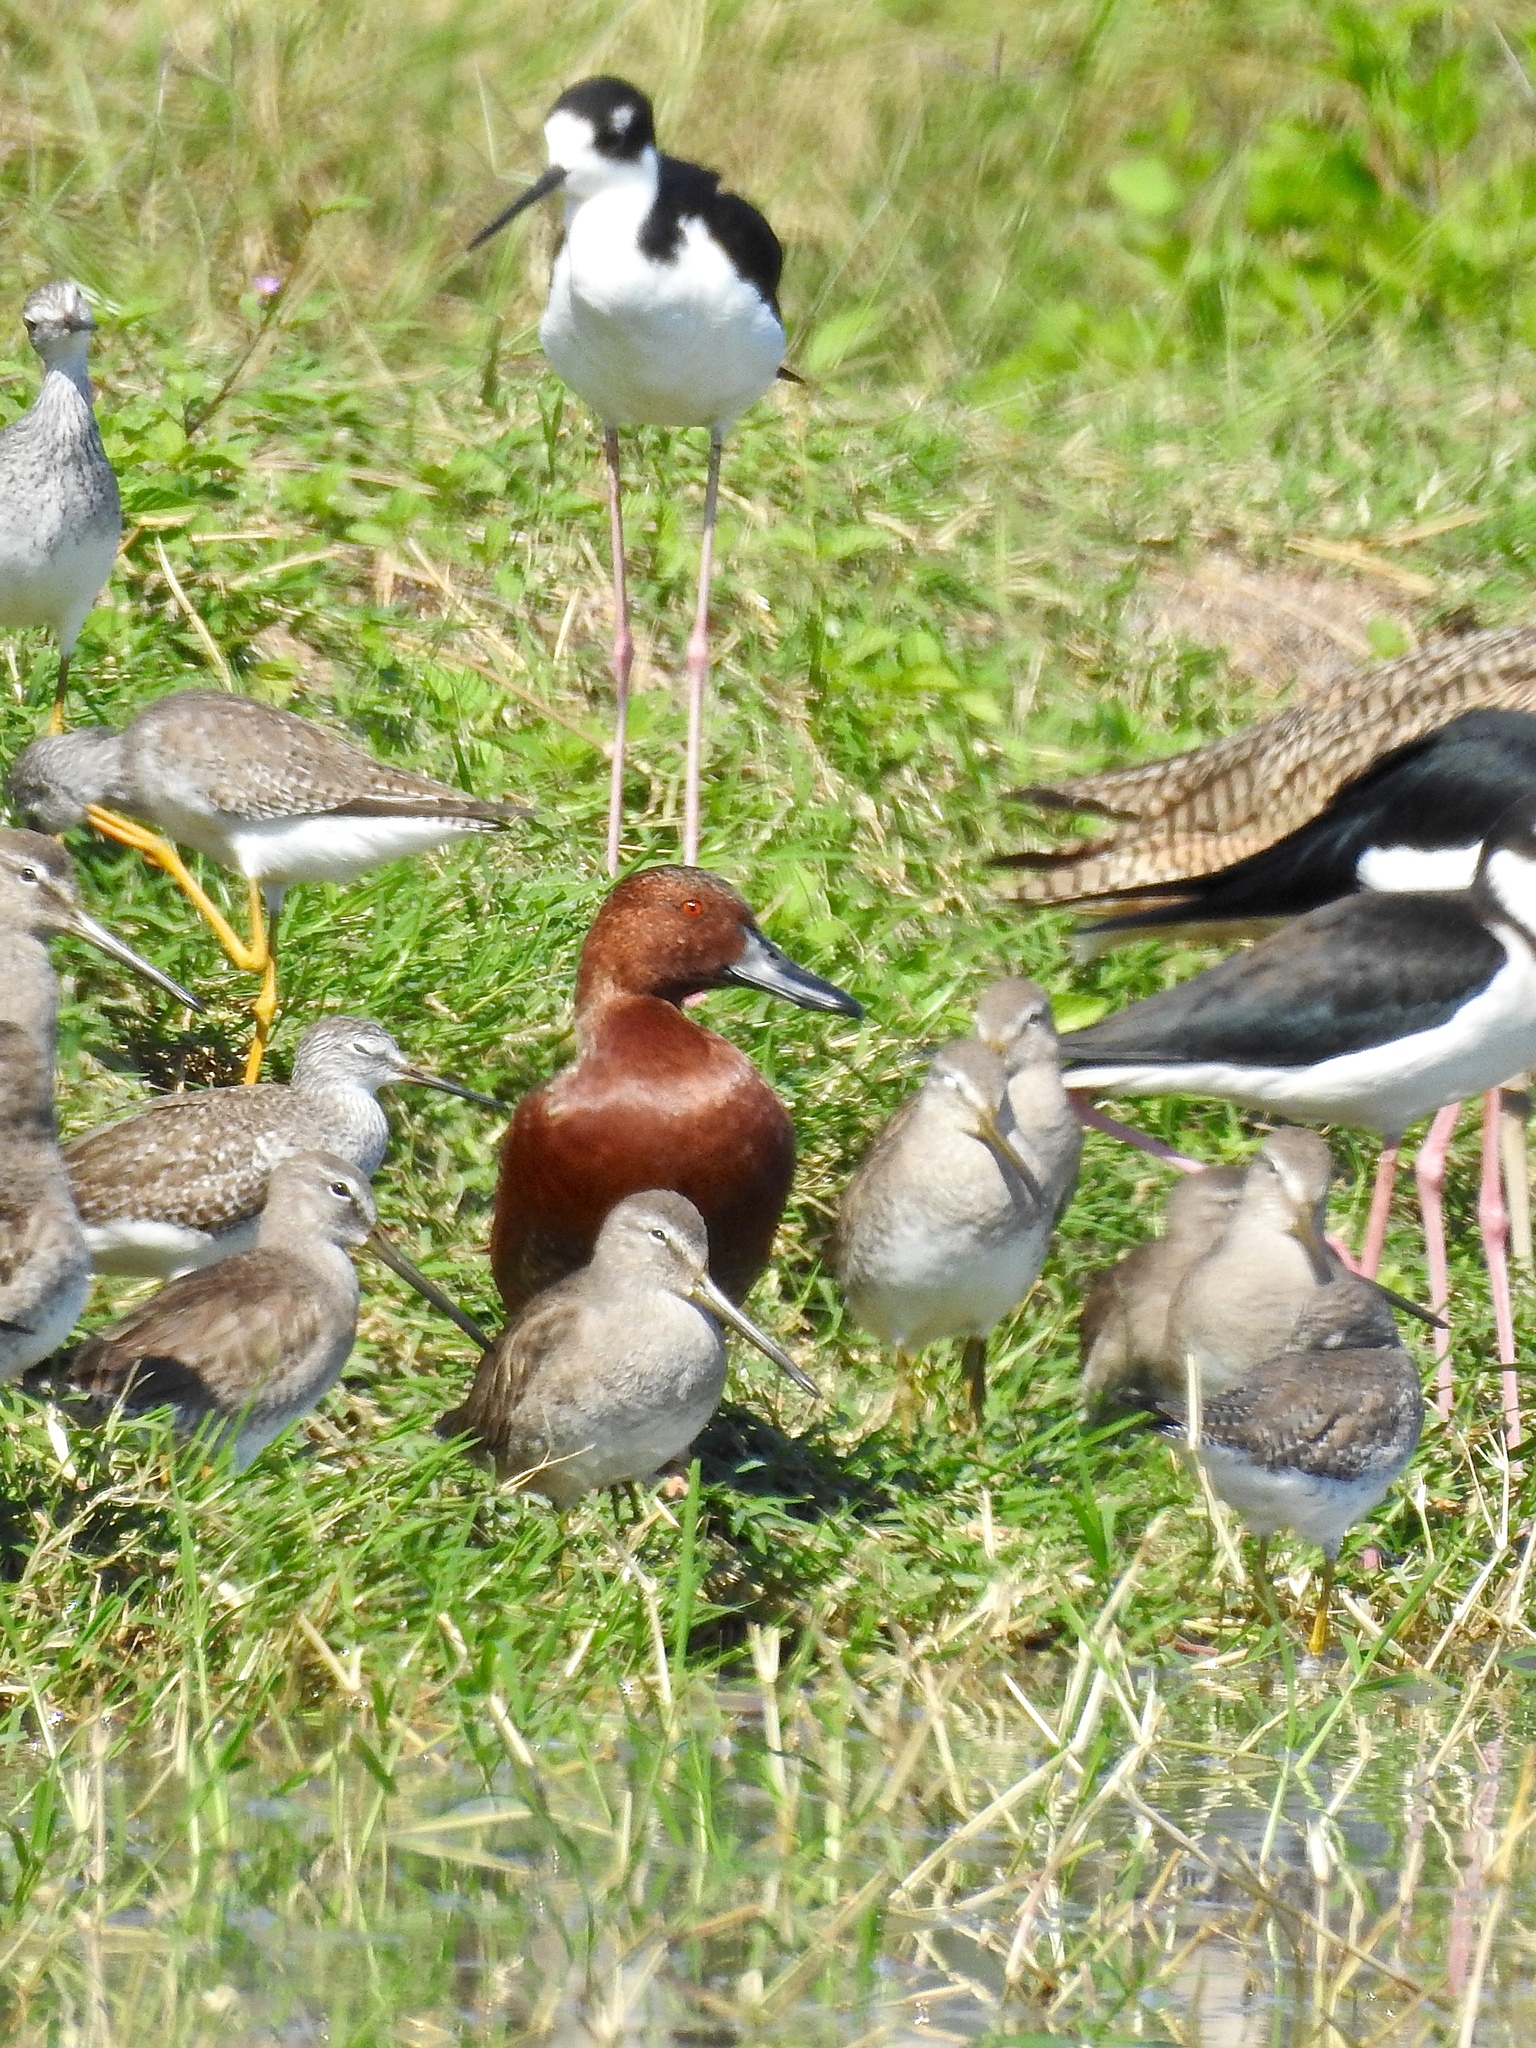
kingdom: Animalia
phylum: Chordata
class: Aves
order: Anseriformes
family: Anatidae
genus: Spatula
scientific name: Spatula cyanoptera
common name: Cinnamon teal
